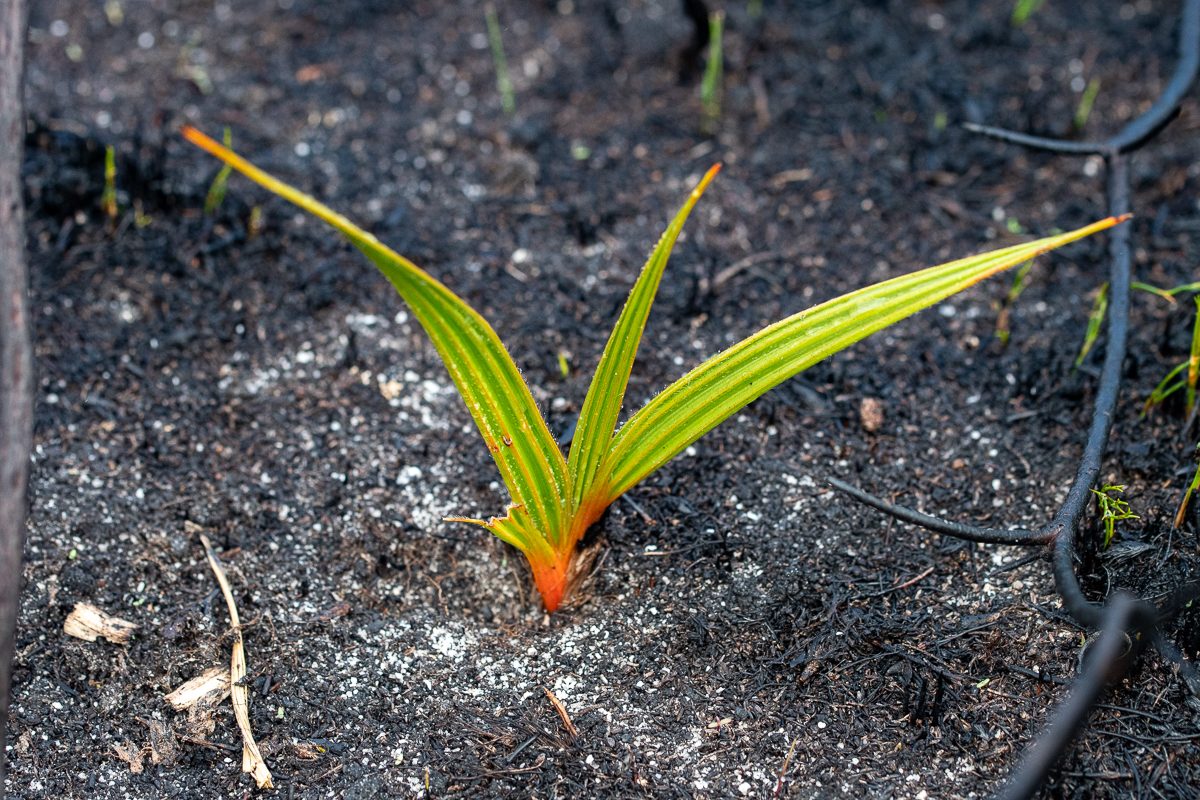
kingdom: Plantae
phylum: Tracheophyta
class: Liliopsida
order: Commelinales
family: Haemodoraceae
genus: Wachendorfia
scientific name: Wachendorfia paniculata
